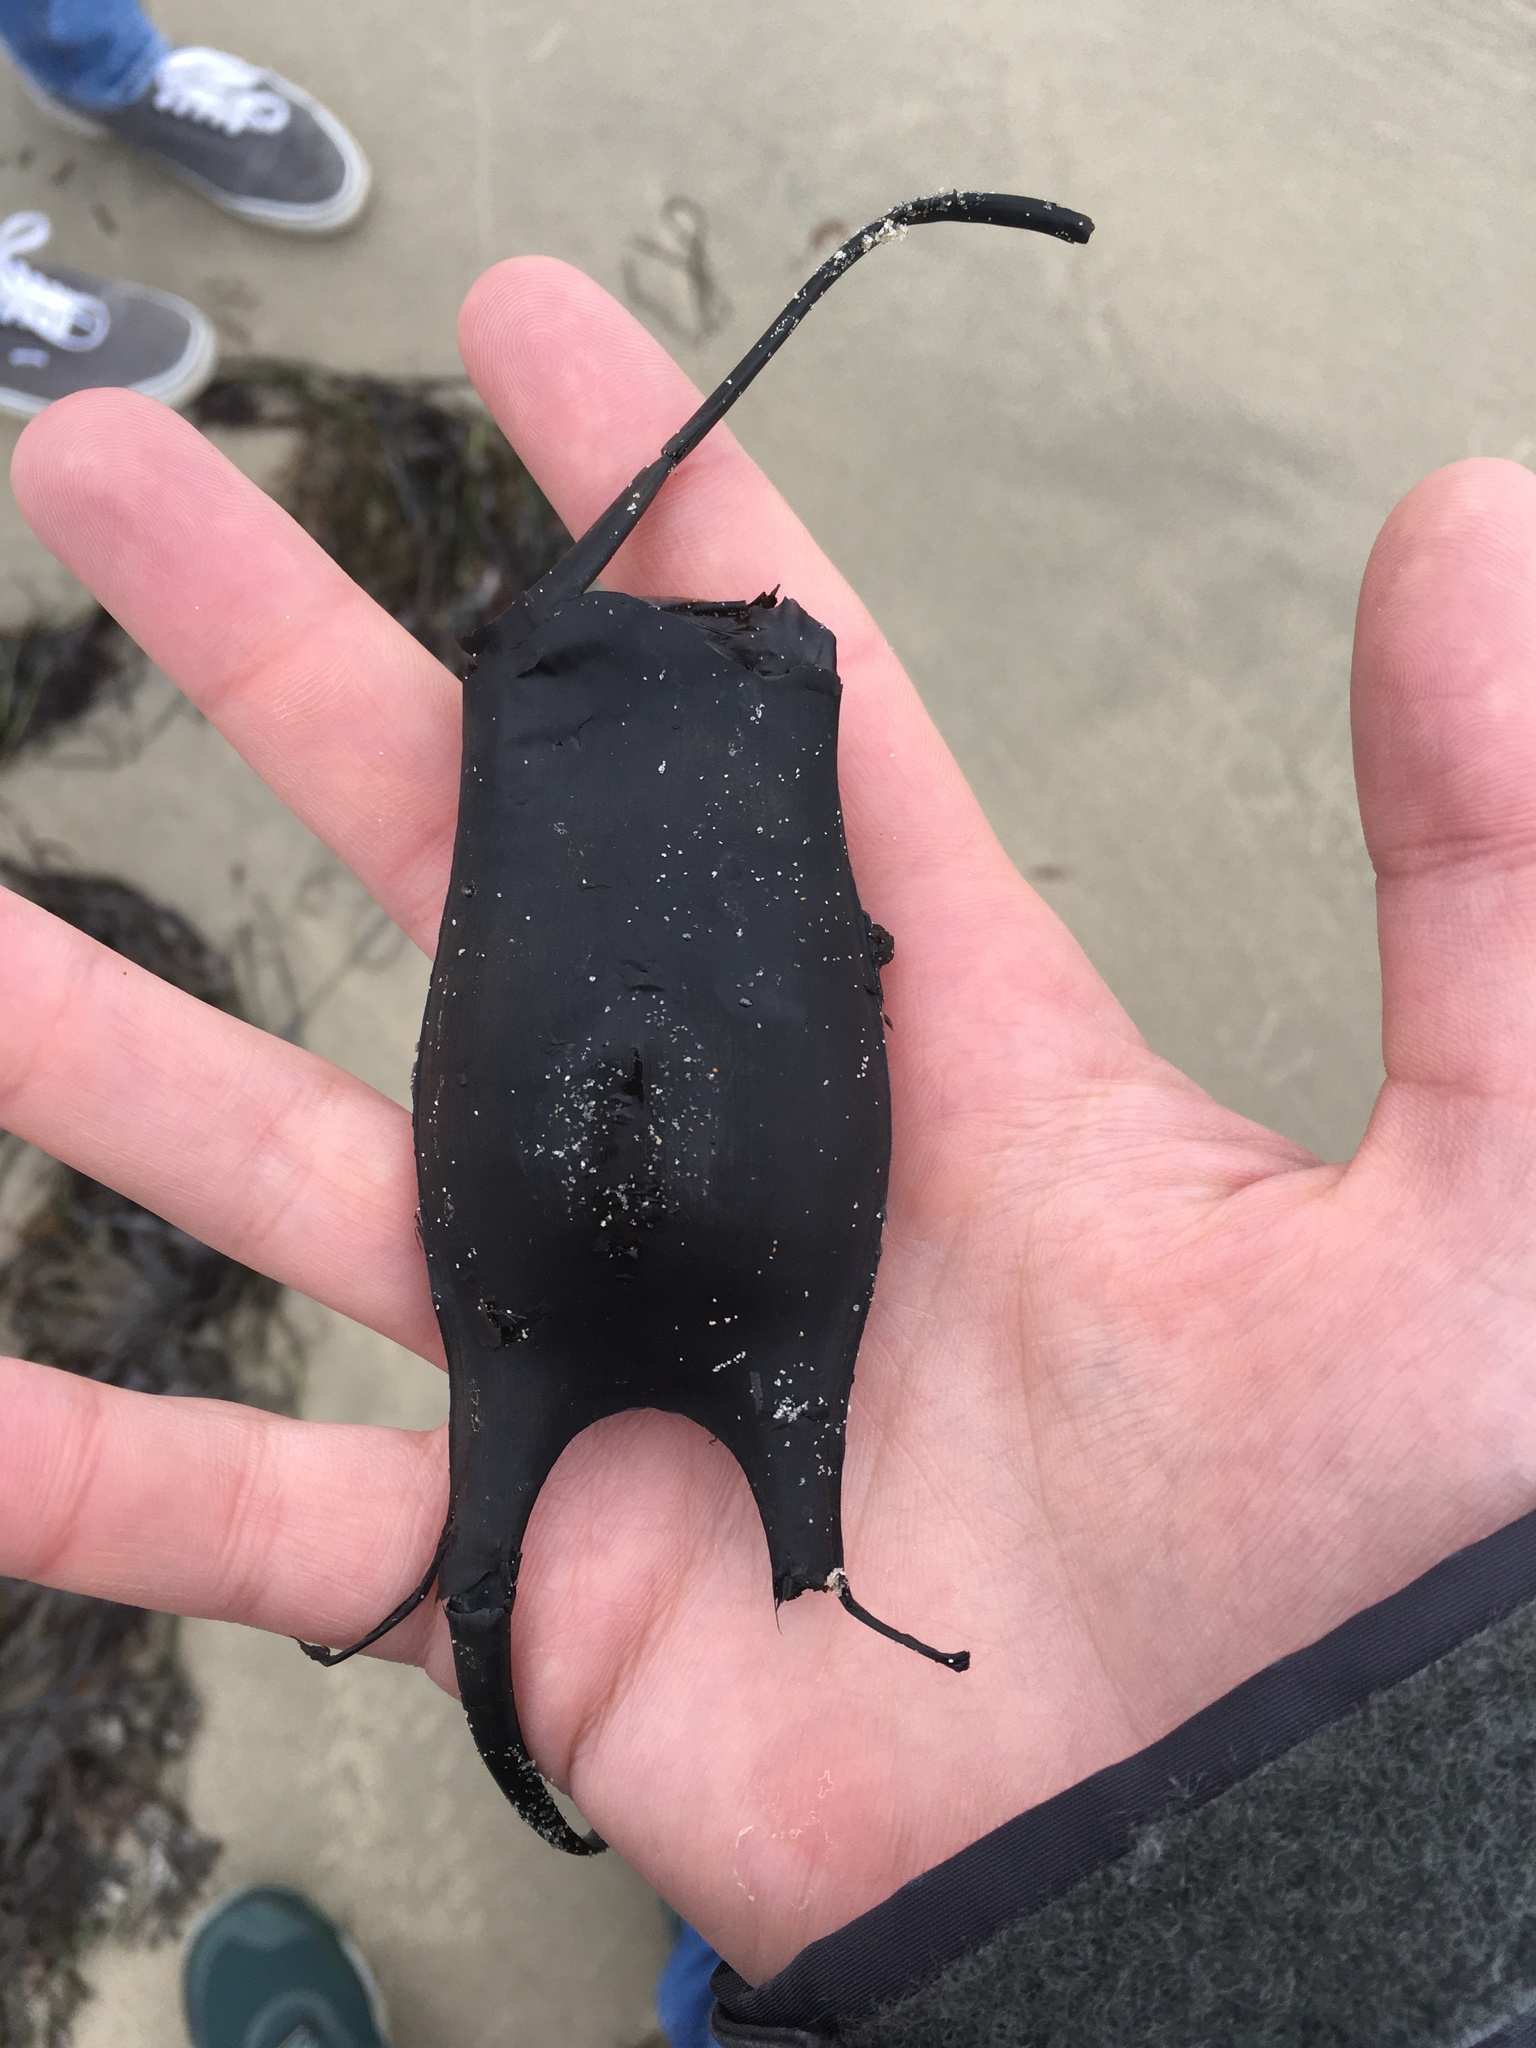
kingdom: Animalia
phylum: Chordata
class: Elasmobranchii
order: Rajiformes
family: Rajidae
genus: Leucoraja
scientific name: Leucoraja ocellata
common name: Winter skate
